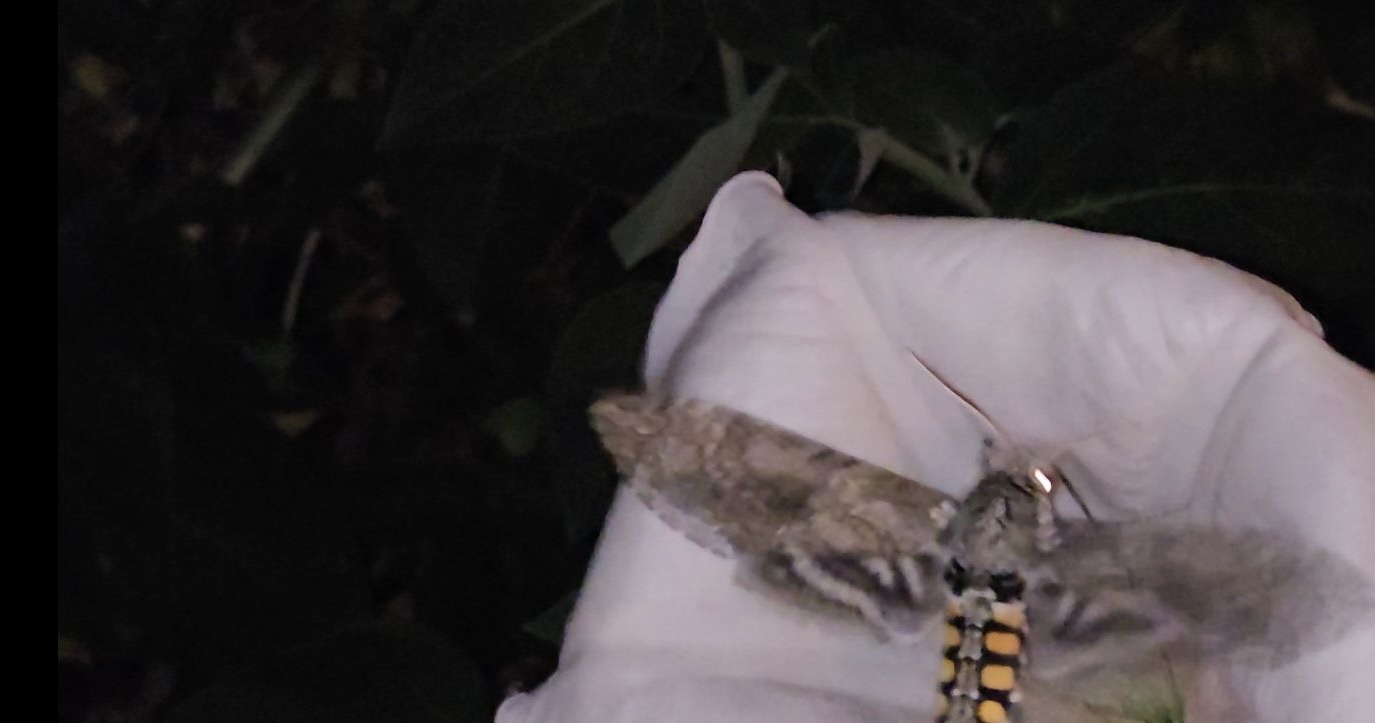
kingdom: Animalia
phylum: Arthropoda
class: Insecta
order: Lepidoptera
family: Sphingidae
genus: Manduca
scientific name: Manduca sexta
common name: Carolina sphinx
